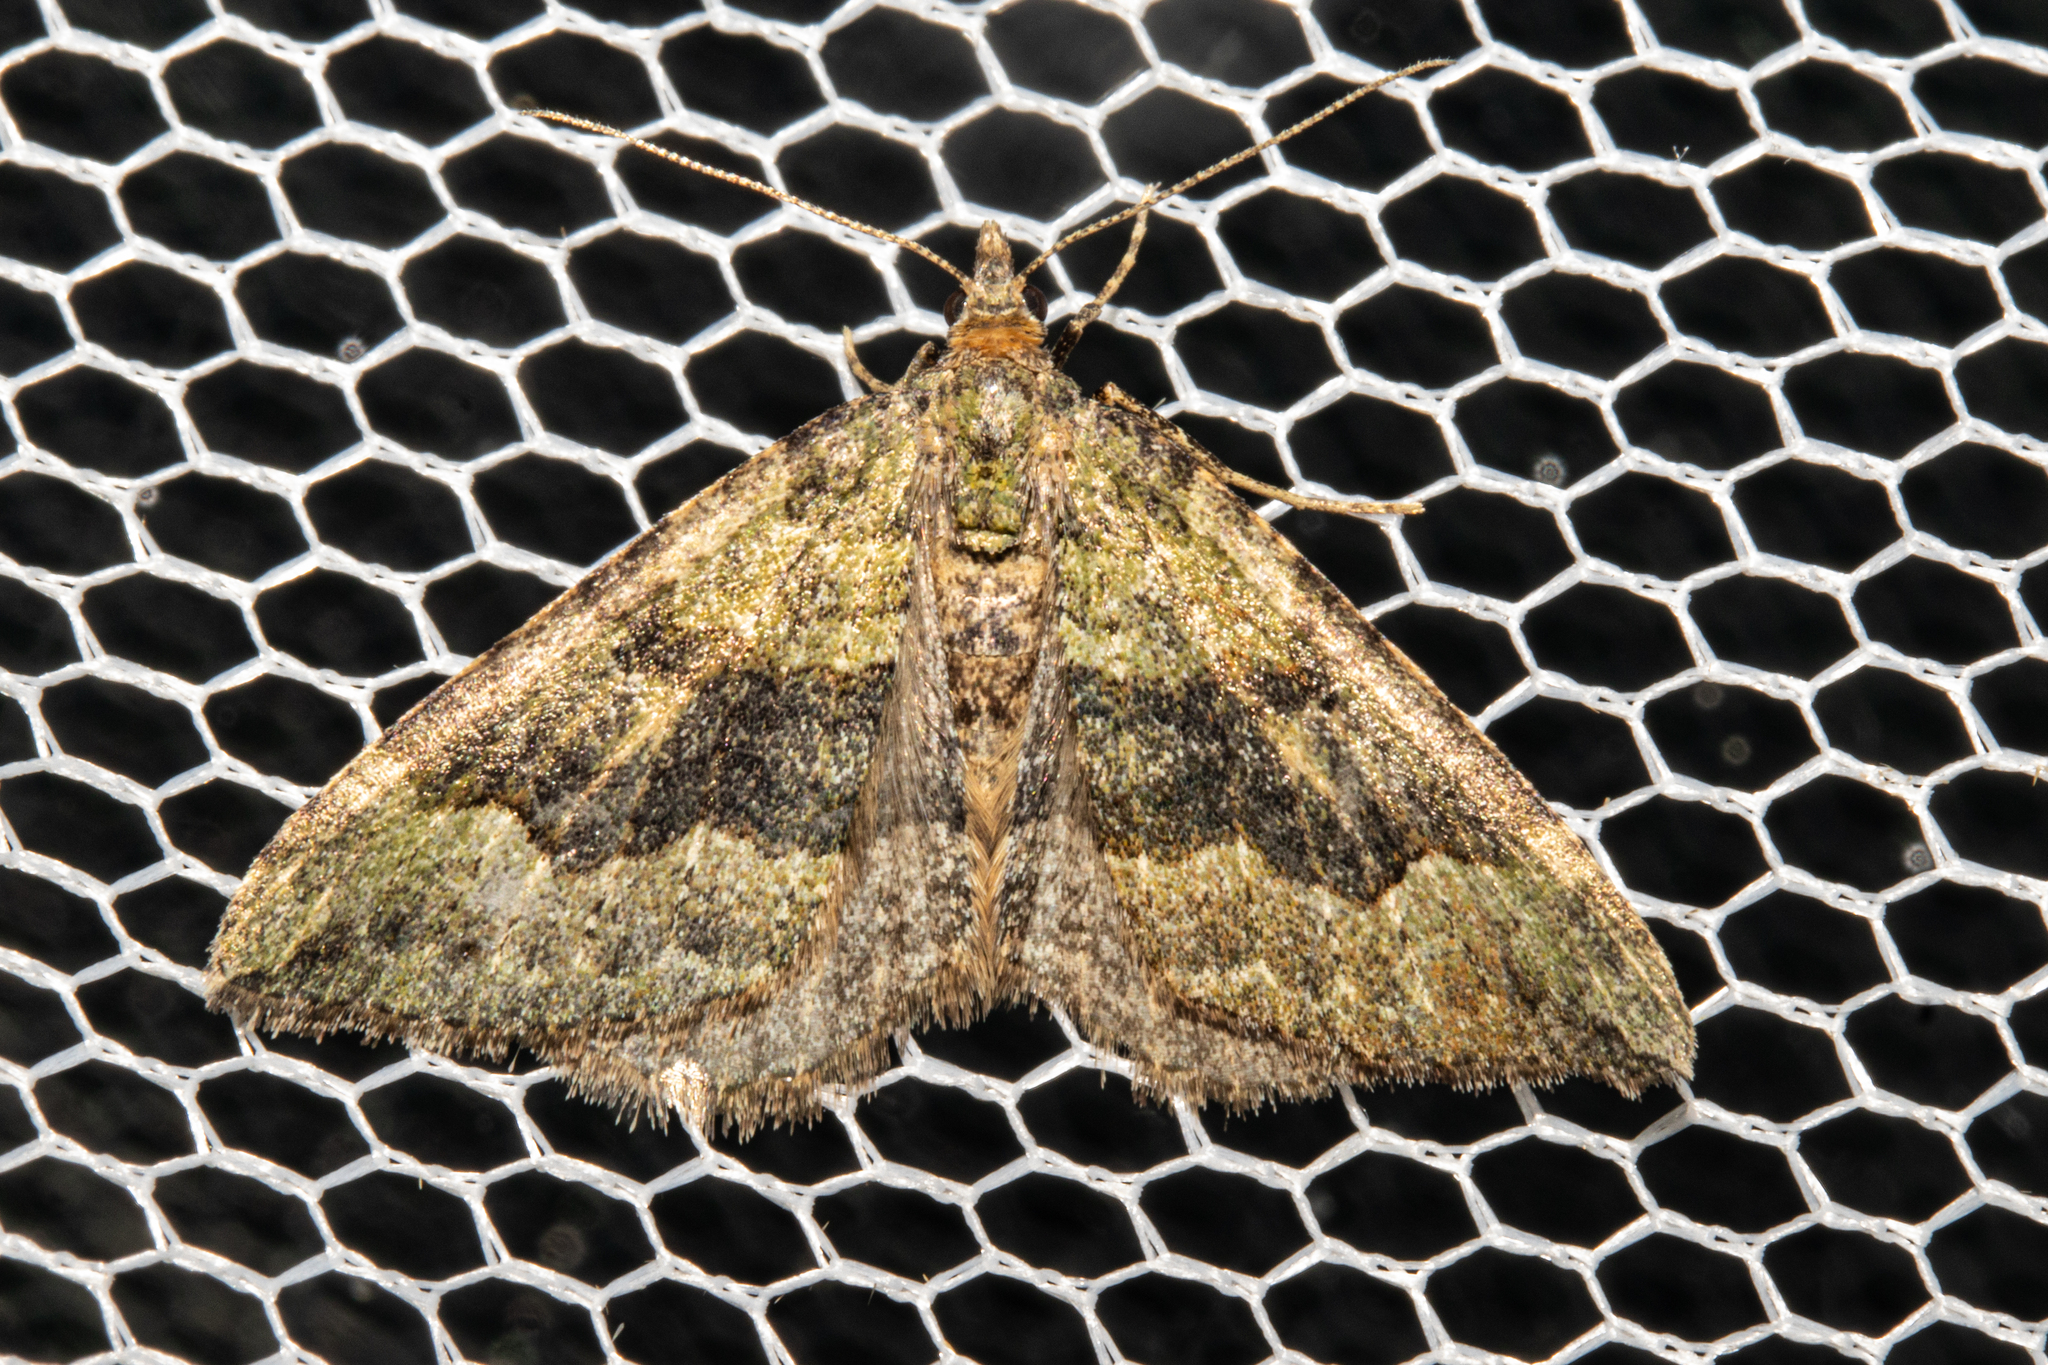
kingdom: Animalia
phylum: Arthropoda
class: Insecta
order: Lepidoptera
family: Geometridae
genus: Epyaxa
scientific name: Epyaxa rosearia
